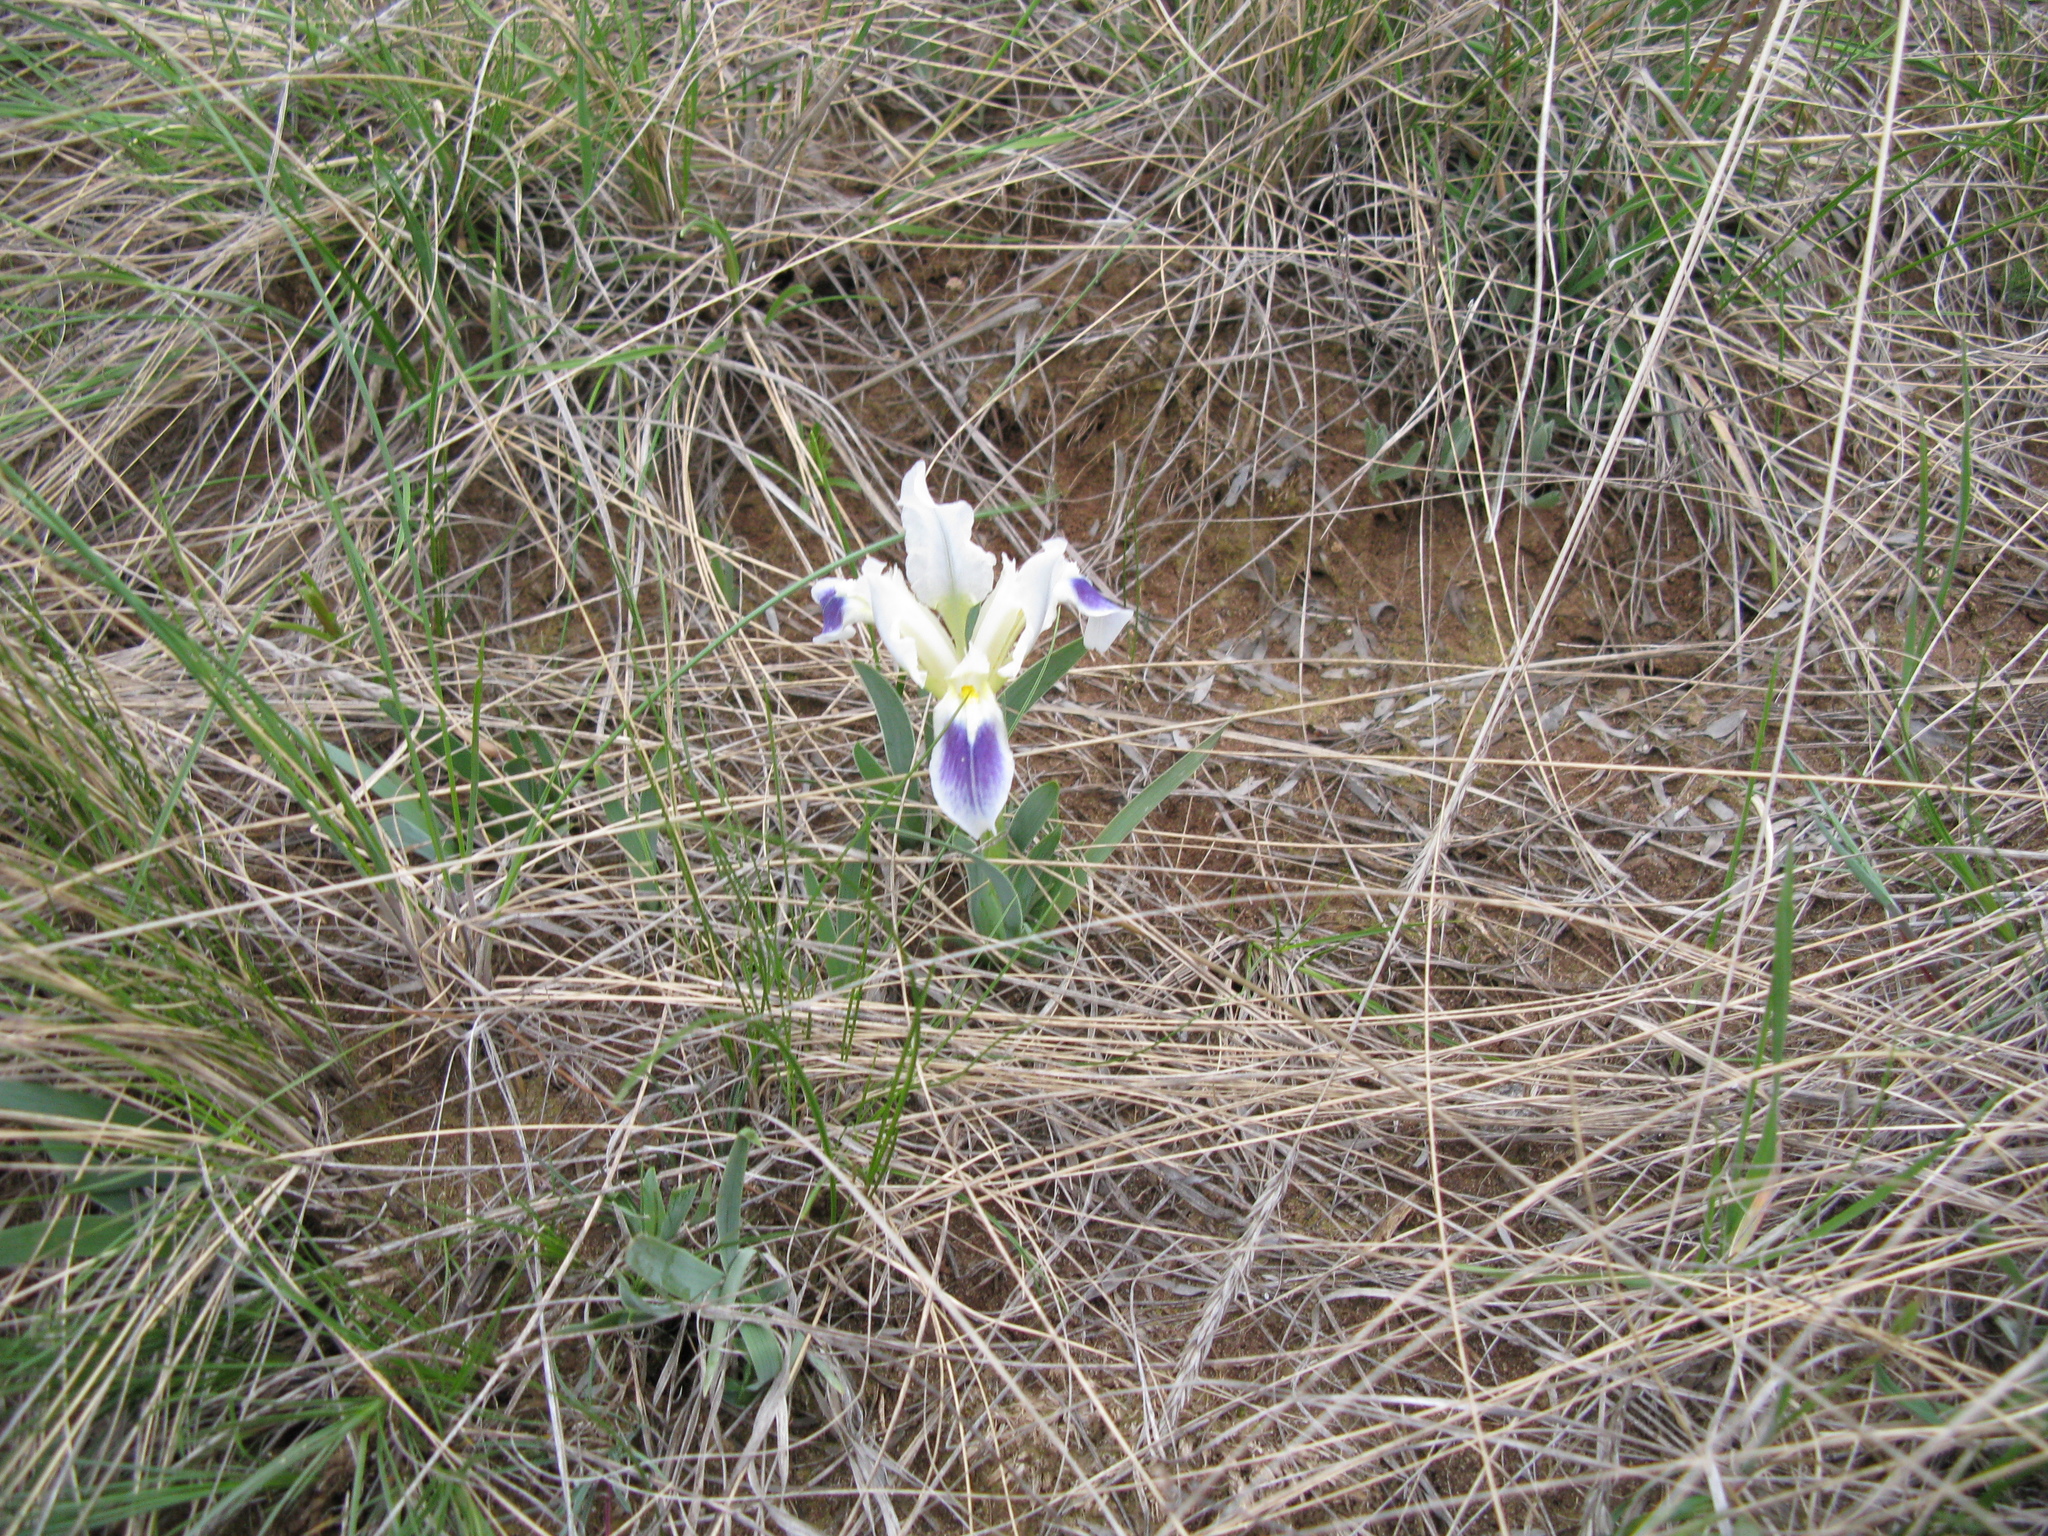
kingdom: Plantae
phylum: Tracheophyta
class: Liliopsida
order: Asparagales
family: Iridaceae
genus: Iris
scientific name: Iris pumila
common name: Dwarf iris
